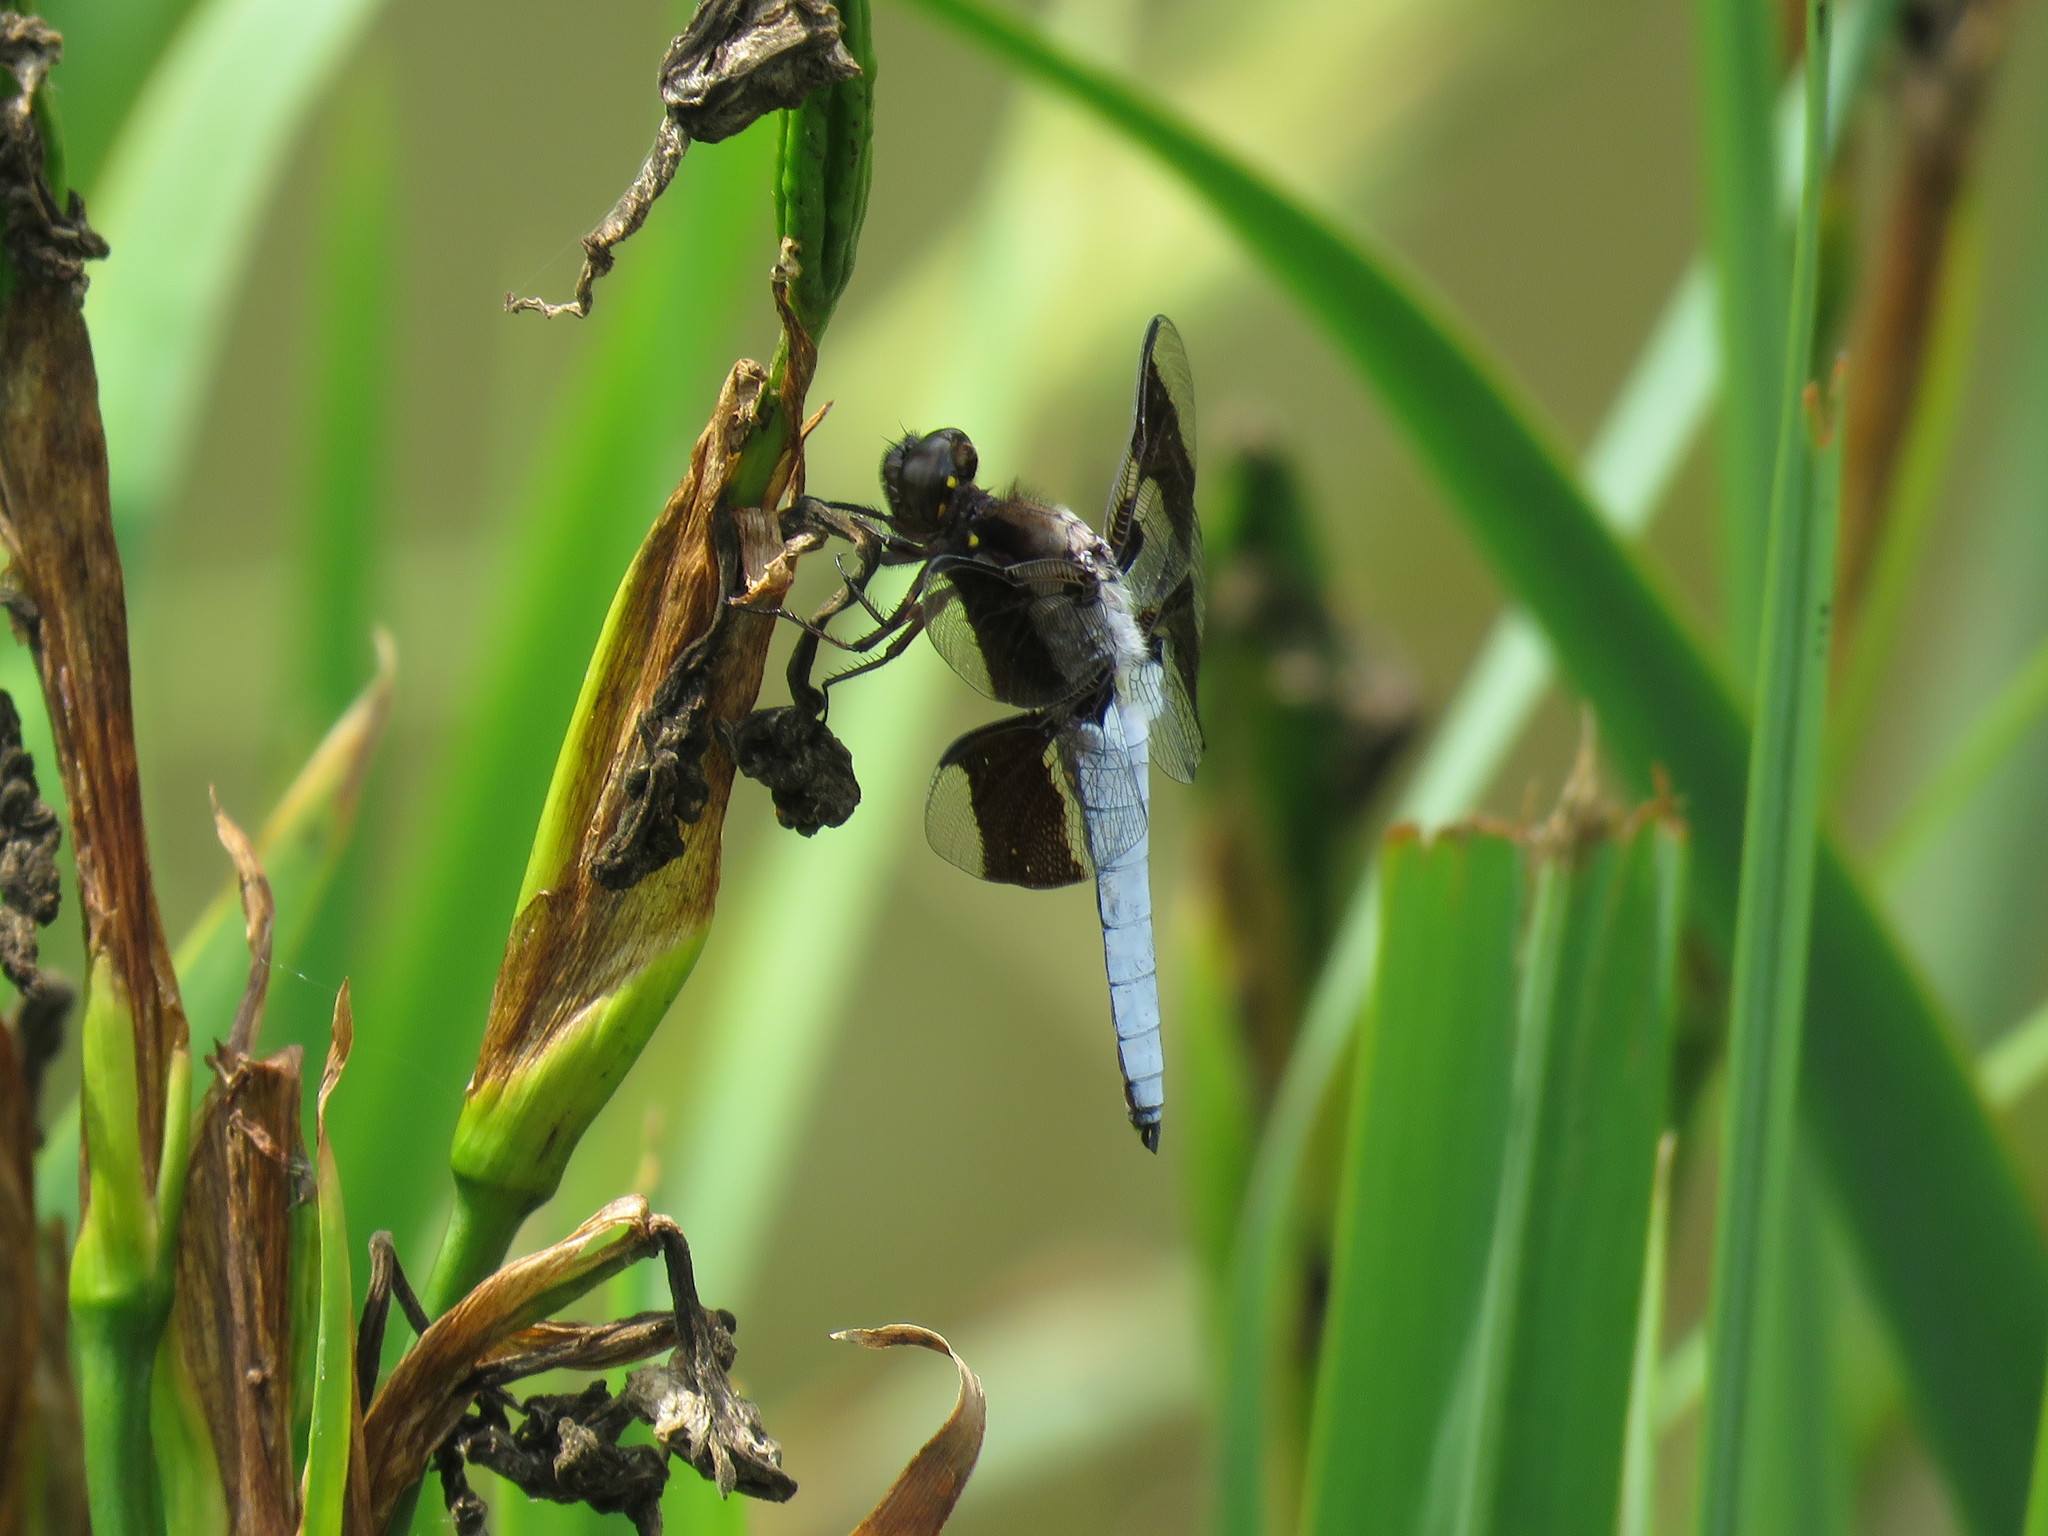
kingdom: Animalia
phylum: Arthropoda
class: Insecta
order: Odonata
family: Libellulidae
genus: Plathemis
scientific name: Plathemis lydia
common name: Common whitetail
